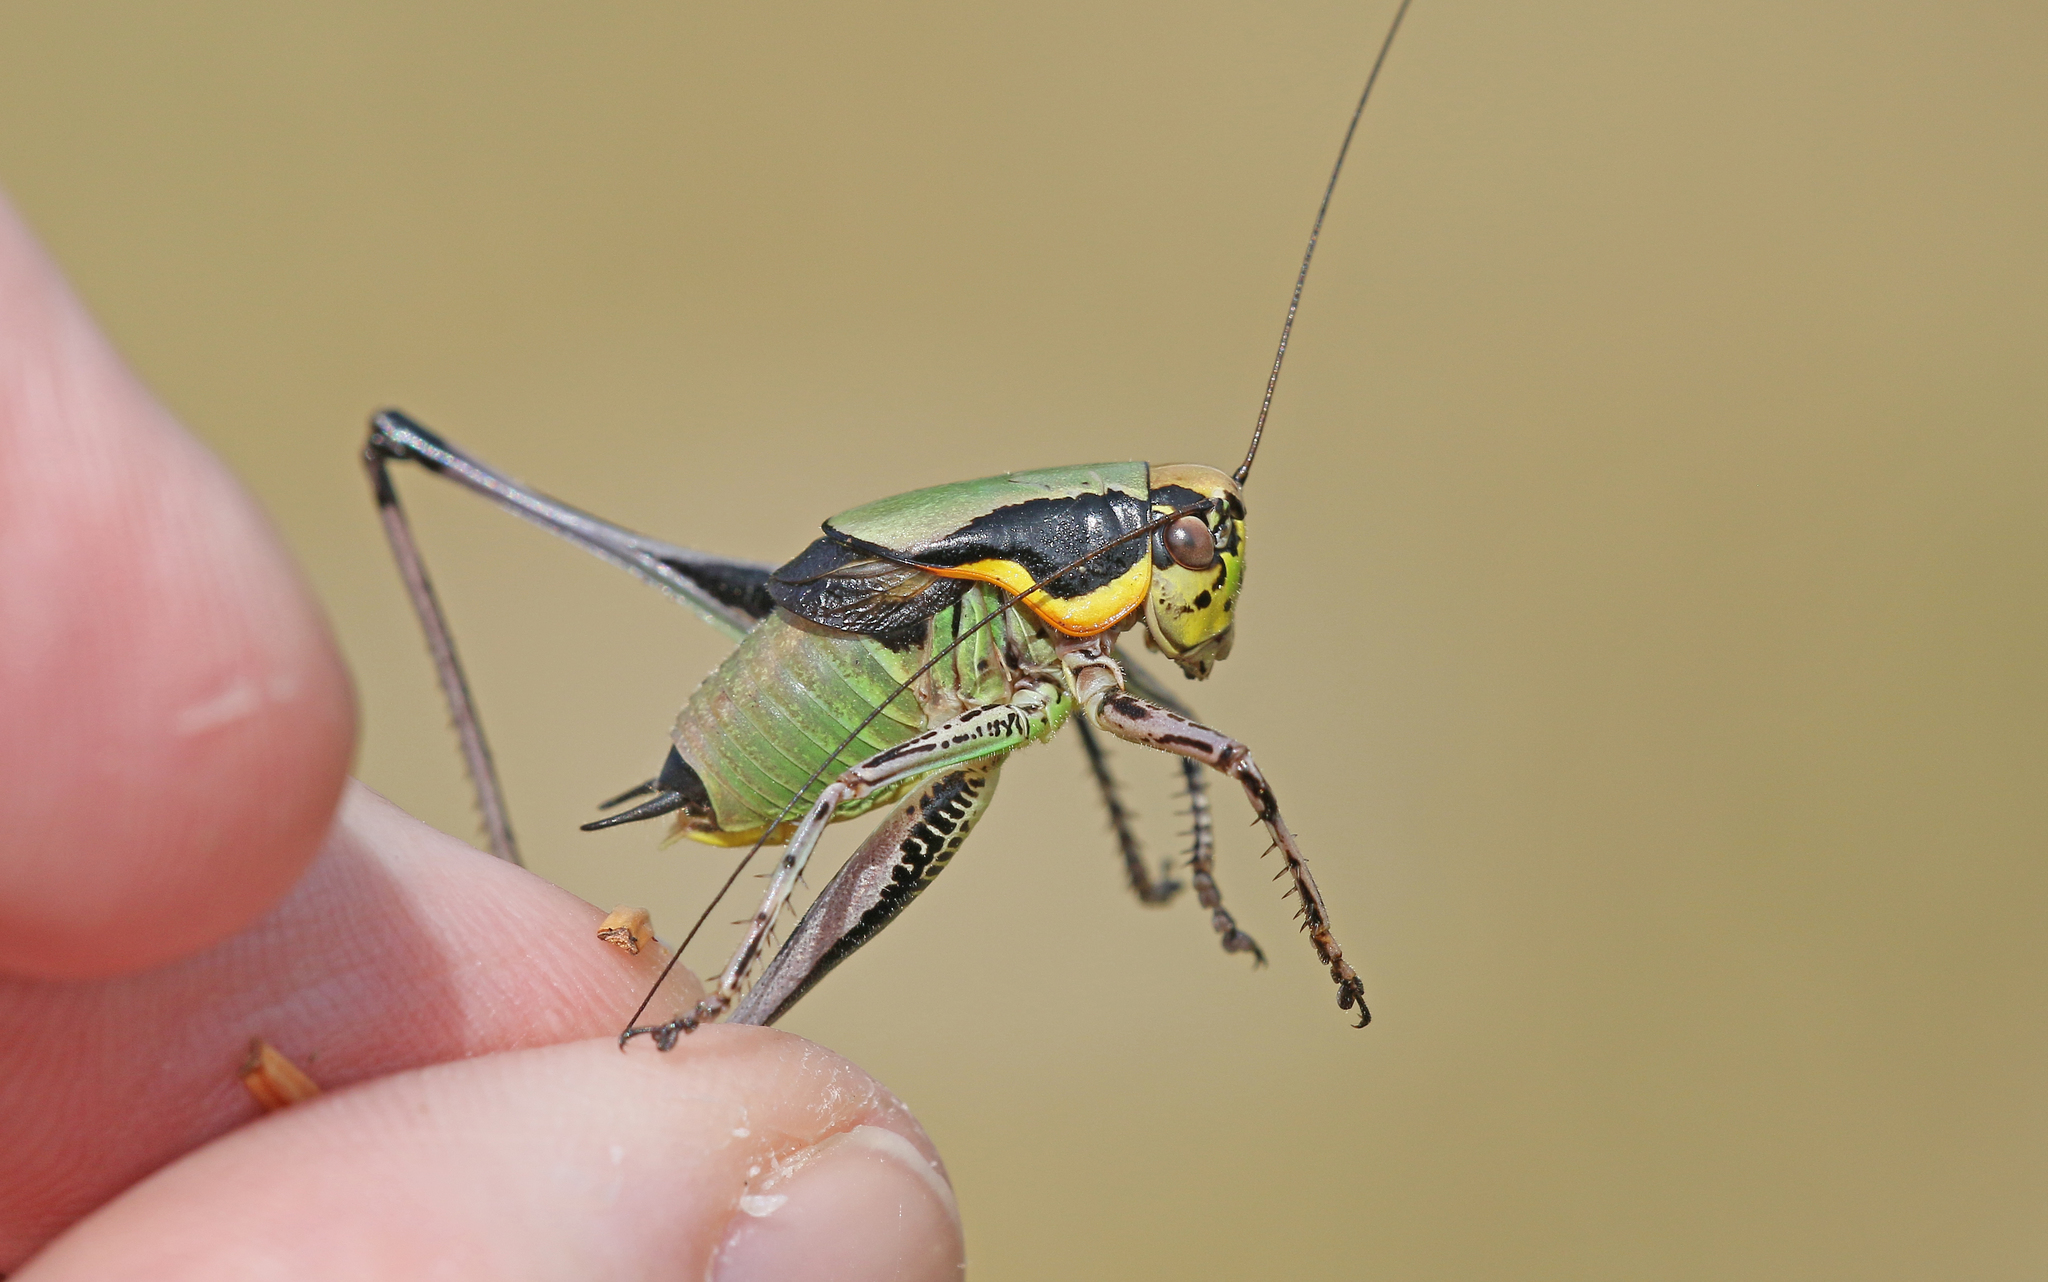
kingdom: Animalia
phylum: Arthropoda
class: Insecta
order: Orthoptera
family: Tettigoniidae
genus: Eupholidoptera
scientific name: Eupholidoptera chabrieri
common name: Chabrier's marbled bush-cricket
